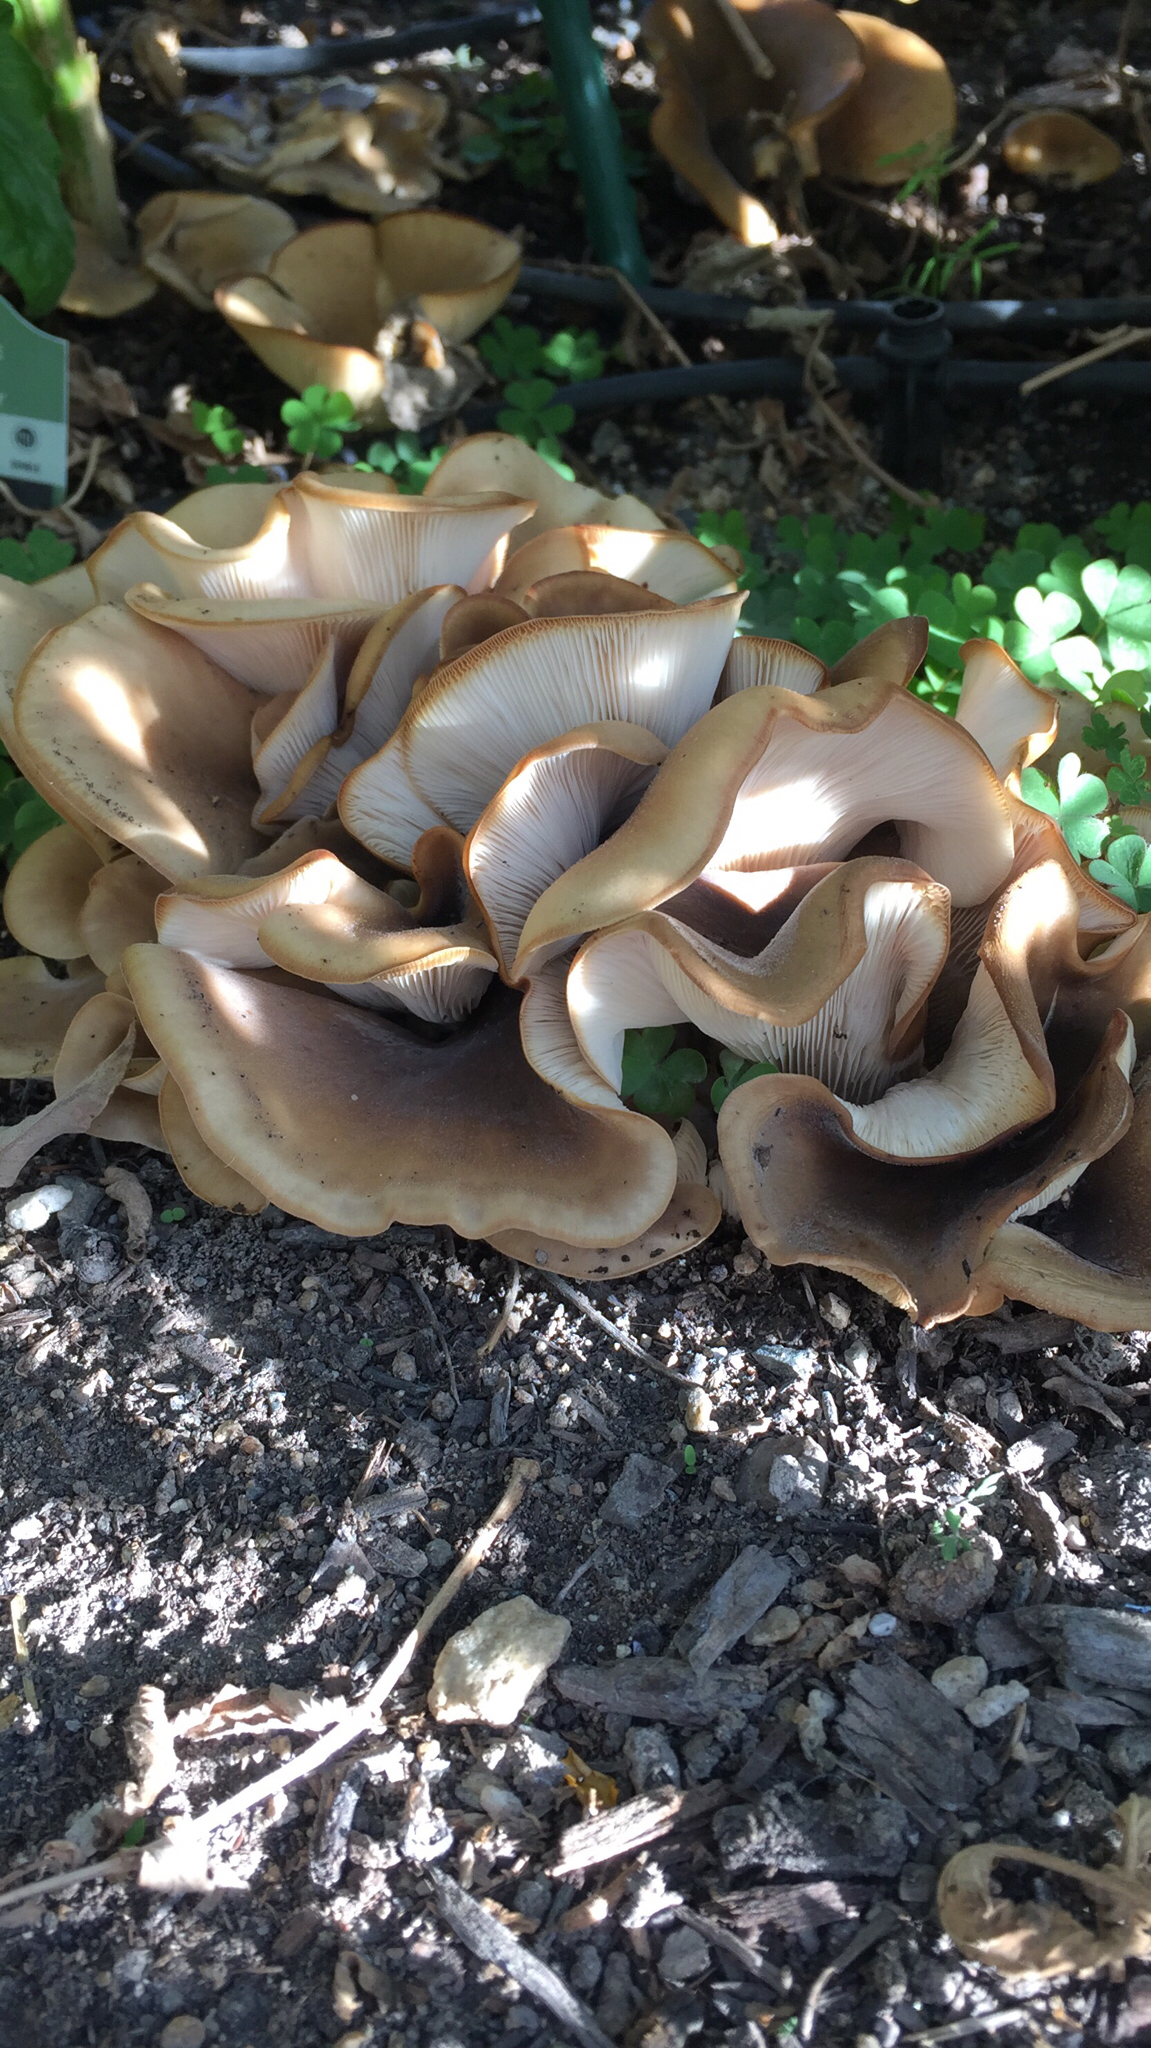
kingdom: Fungi
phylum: Basidiomycota
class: Agaricomycetes
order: Agaricales
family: Pleurotaceae
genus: Hohenbuehelia
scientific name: Hohenbuehelia petaloides
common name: Shoehorn oyster
